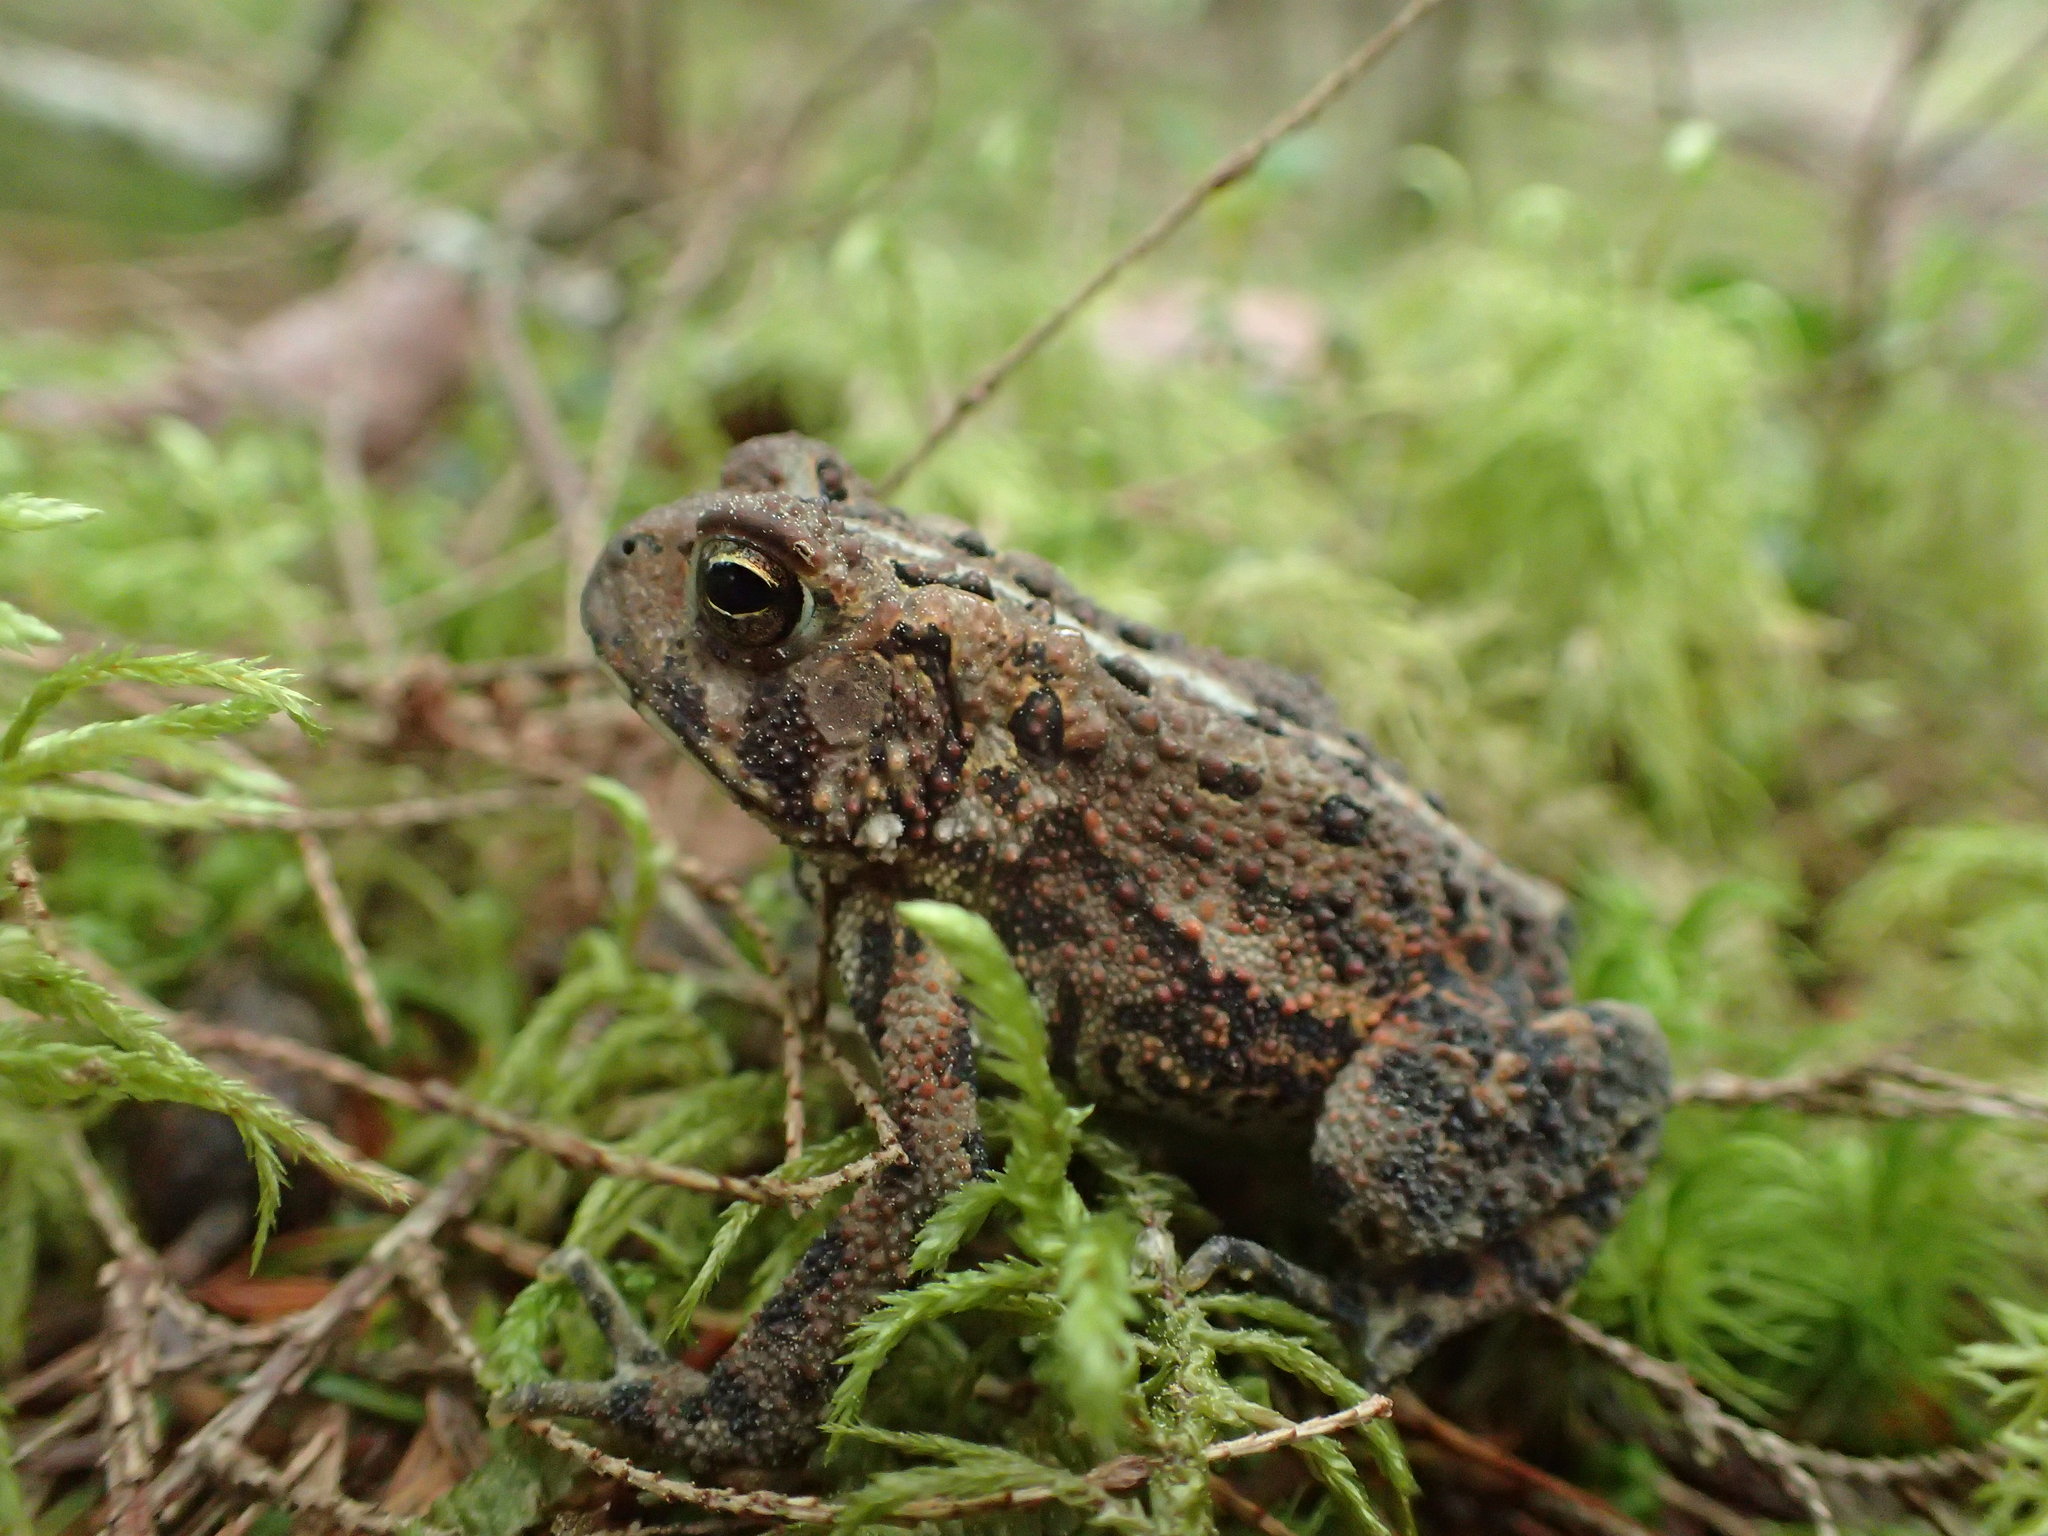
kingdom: Animalia
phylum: Chordata
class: Amphibia
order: Anura
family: Bufonidae
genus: Anaxyrus
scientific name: Anaxyrus americanus
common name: American toad
